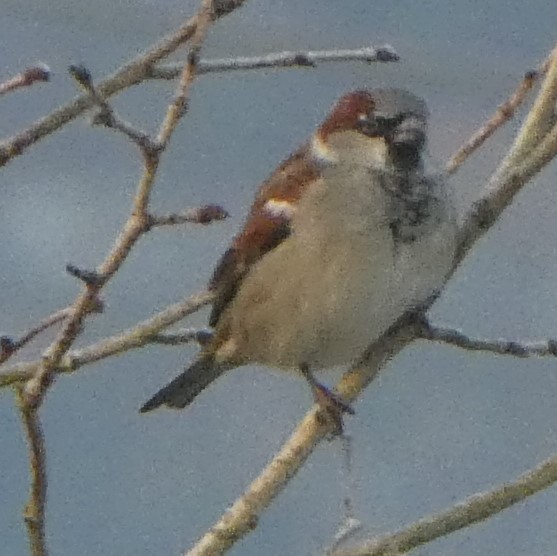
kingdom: Animalia
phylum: Chordata
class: Aves
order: Passeriformes
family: Passeridae
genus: Passer
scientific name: Passer domesticus
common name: House sparrow
